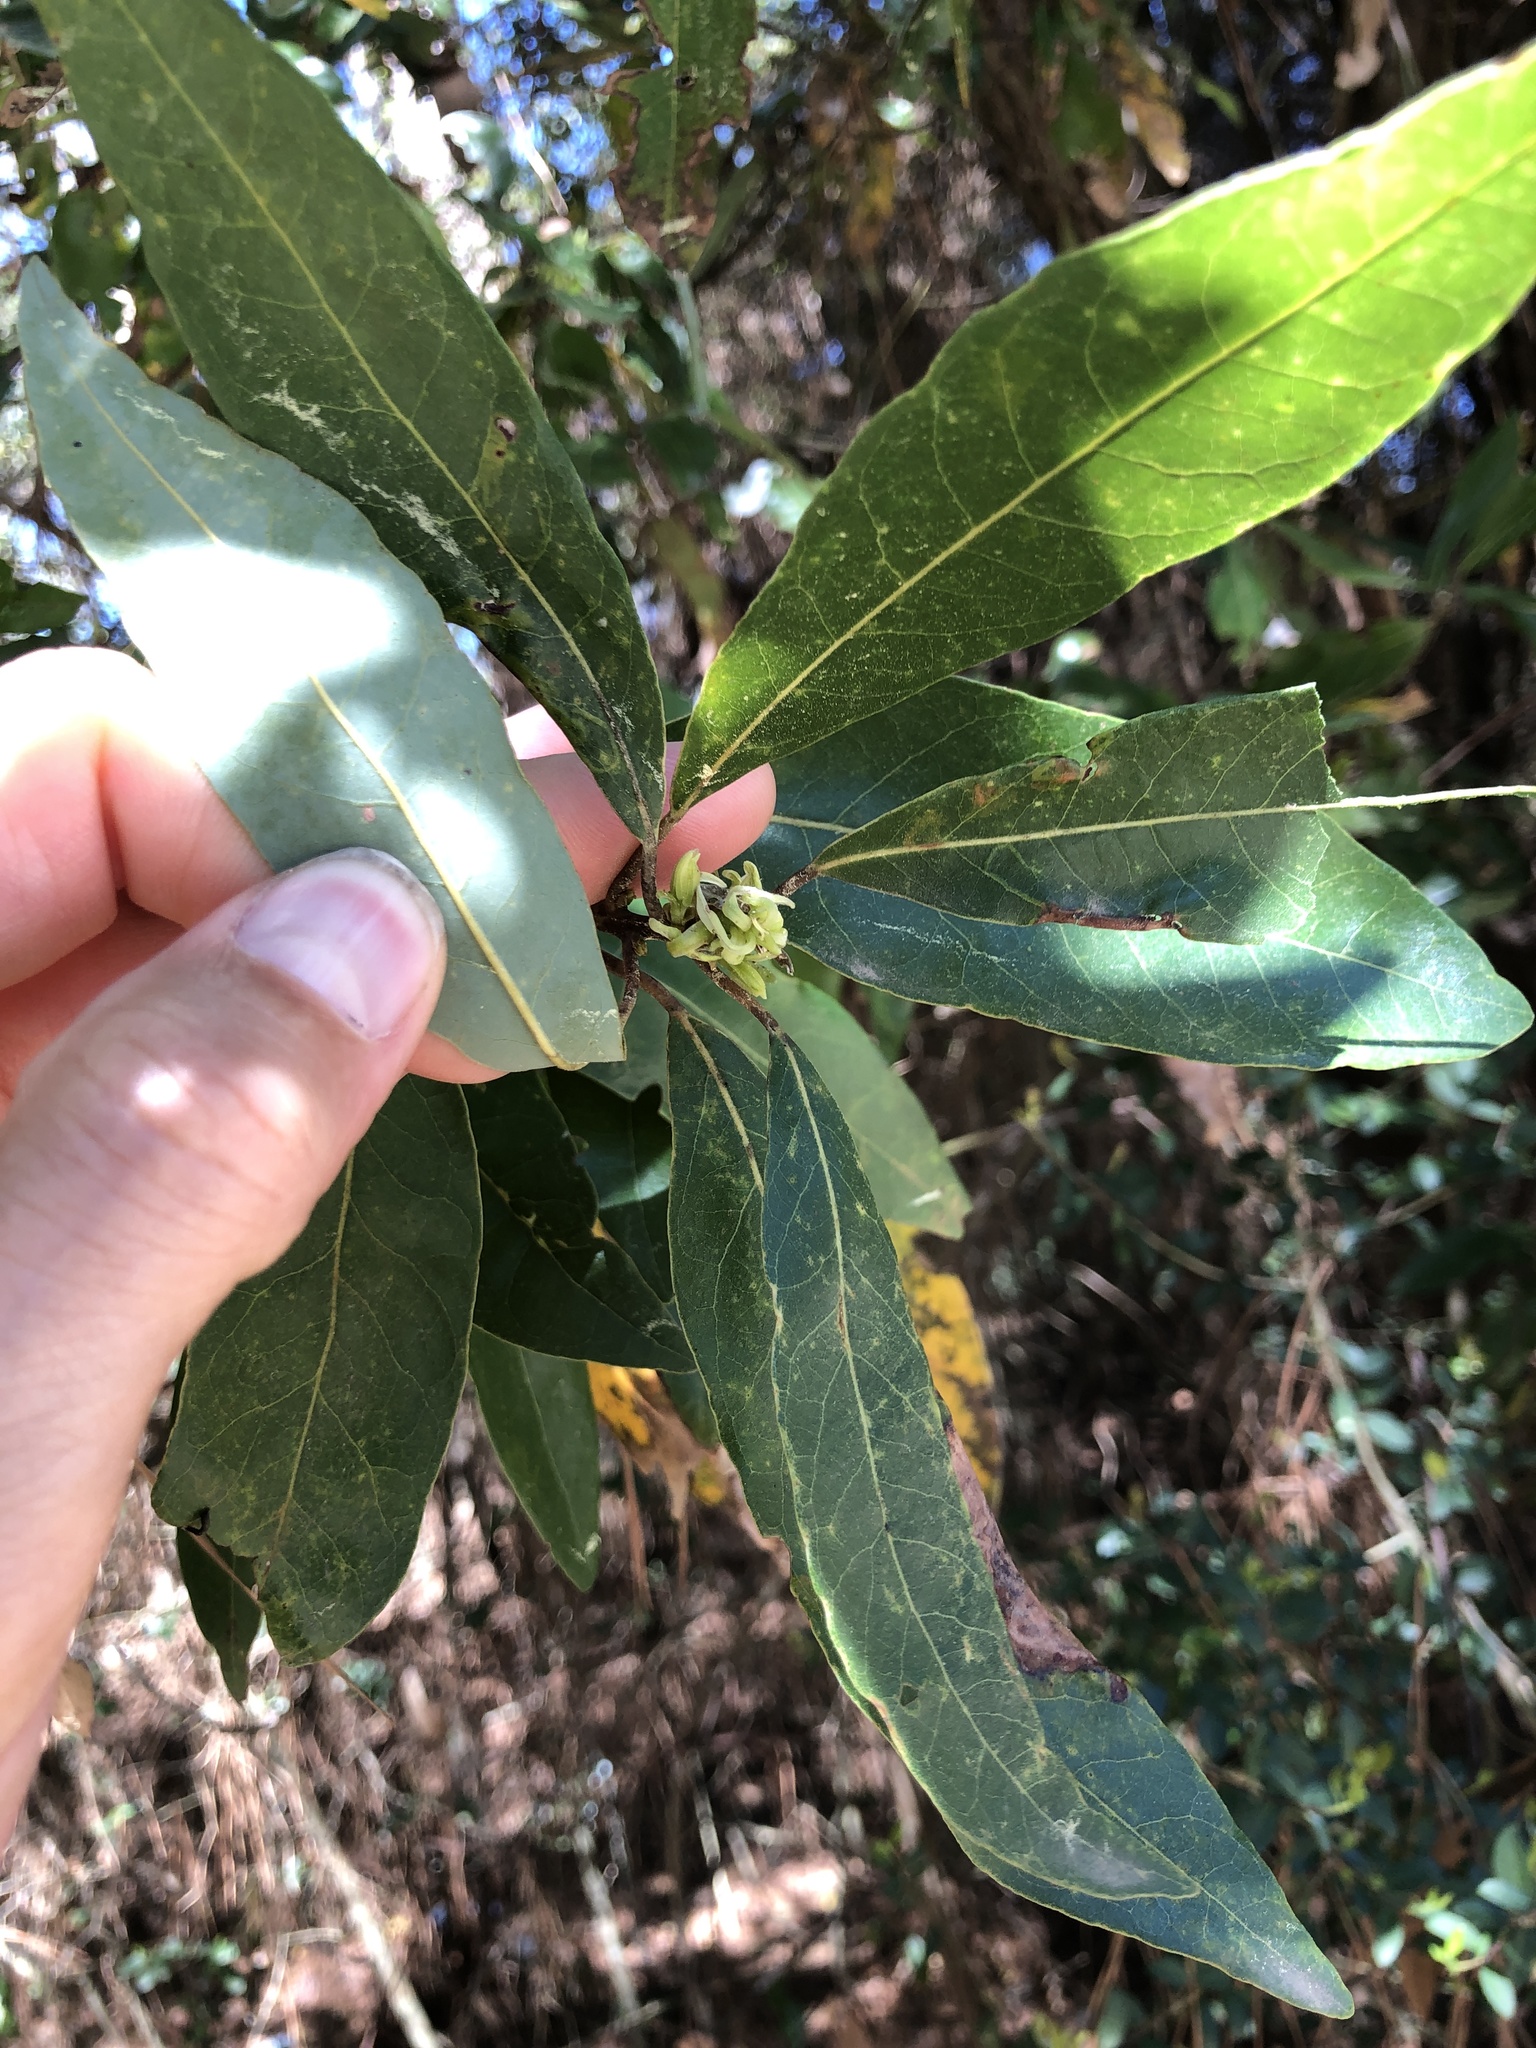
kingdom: Plantae
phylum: Tracheophyta
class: Magnoliopsida
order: Laurales
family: Lauraceae
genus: Persea
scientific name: Persea borbonia
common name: Redbay
